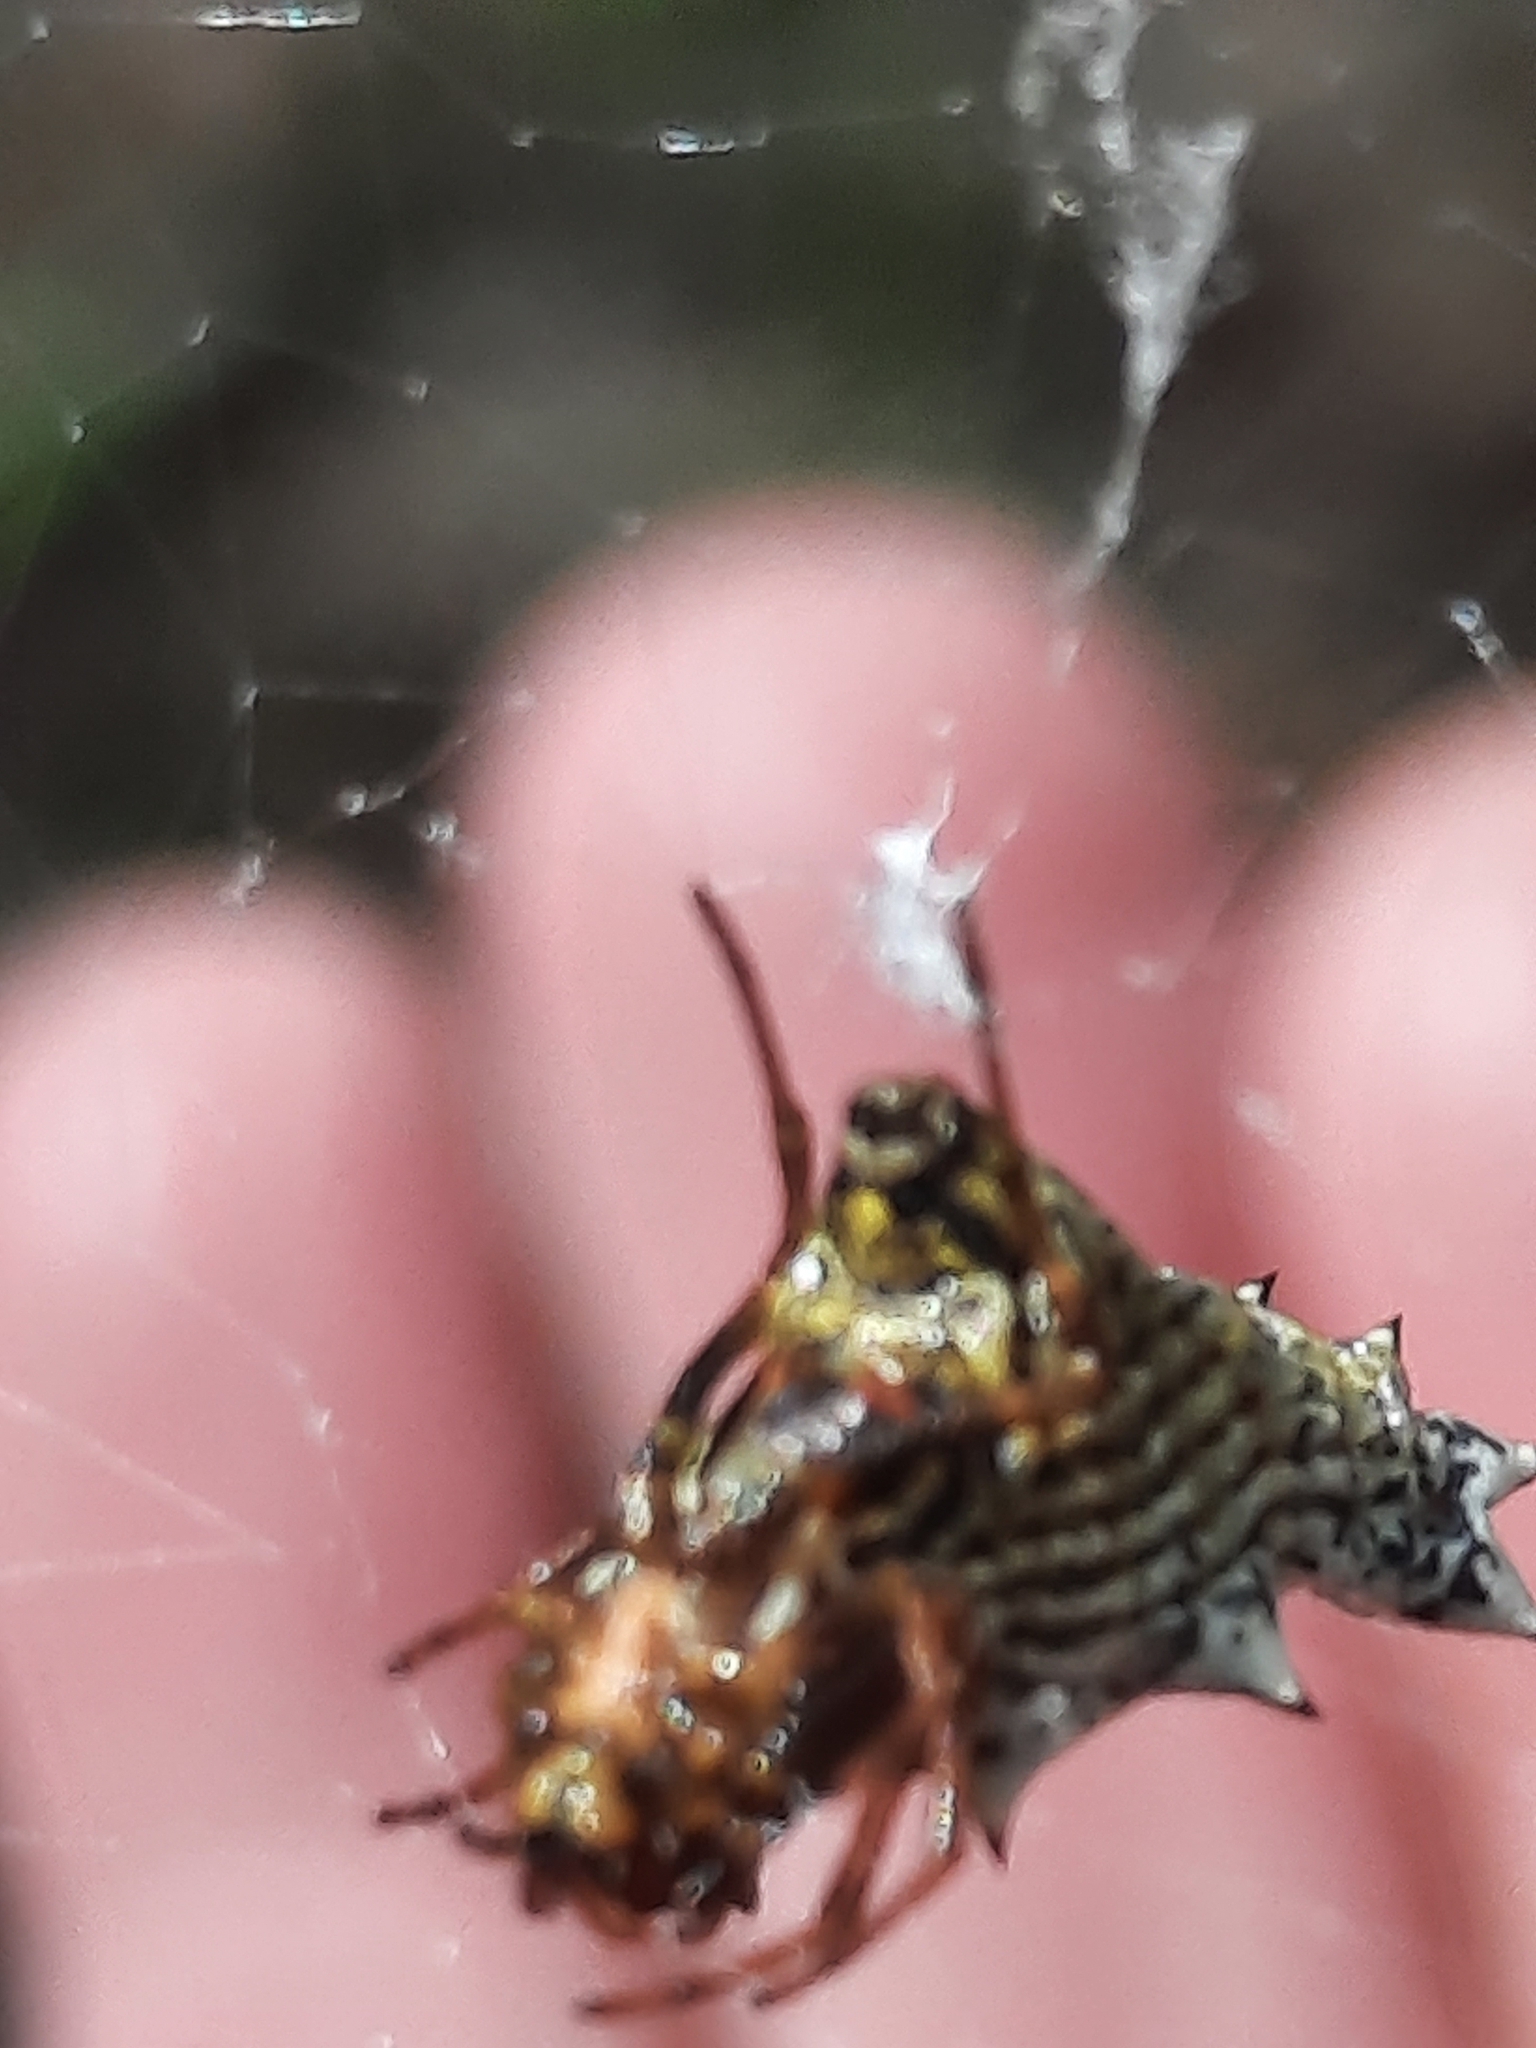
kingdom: Animalia
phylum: Arthropoda
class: Arachnida
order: Araneae
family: Araneidae
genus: Micrathena
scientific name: Micrathena gracilis
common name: Orb weavers
